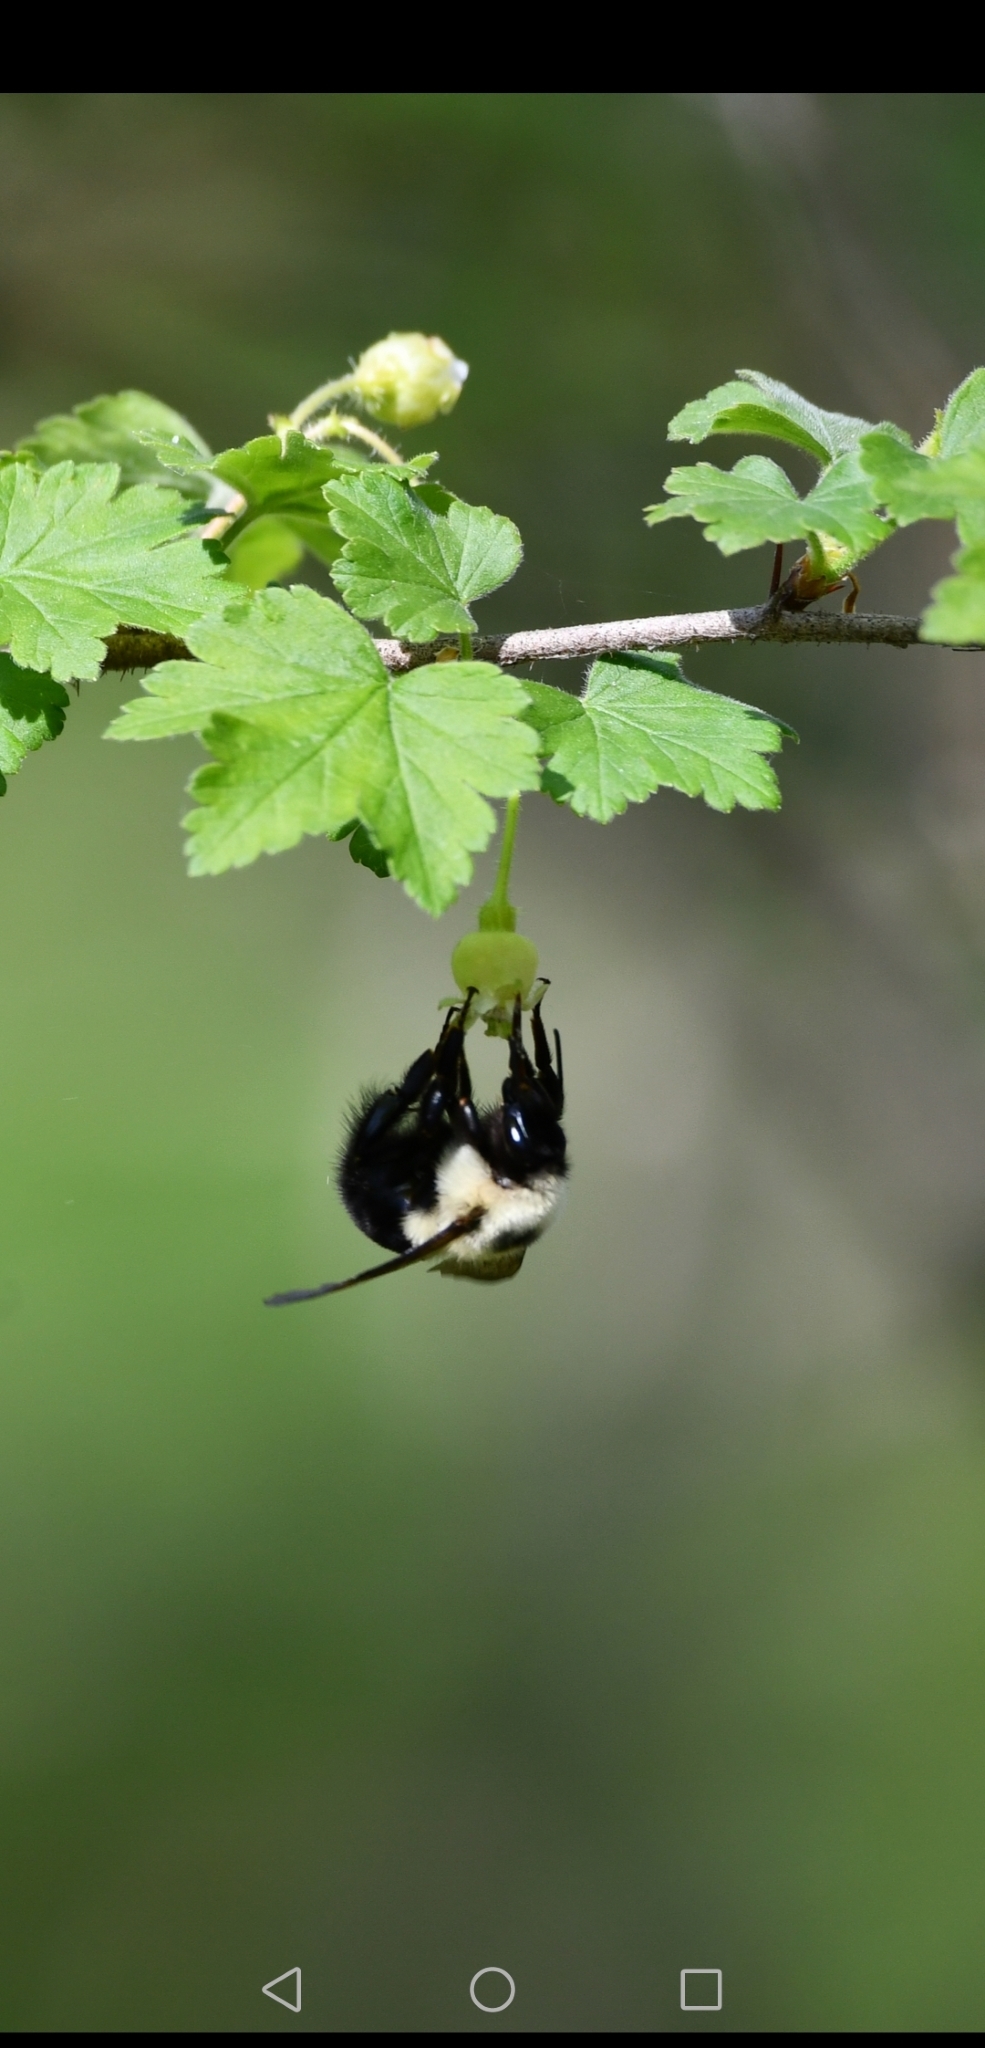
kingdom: Animalia
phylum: Arthropoda
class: Insecta
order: Hymenoptera
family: Apidae
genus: Bombus
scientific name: Bombus bimaculatus
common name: Two-spotted bumble bee
